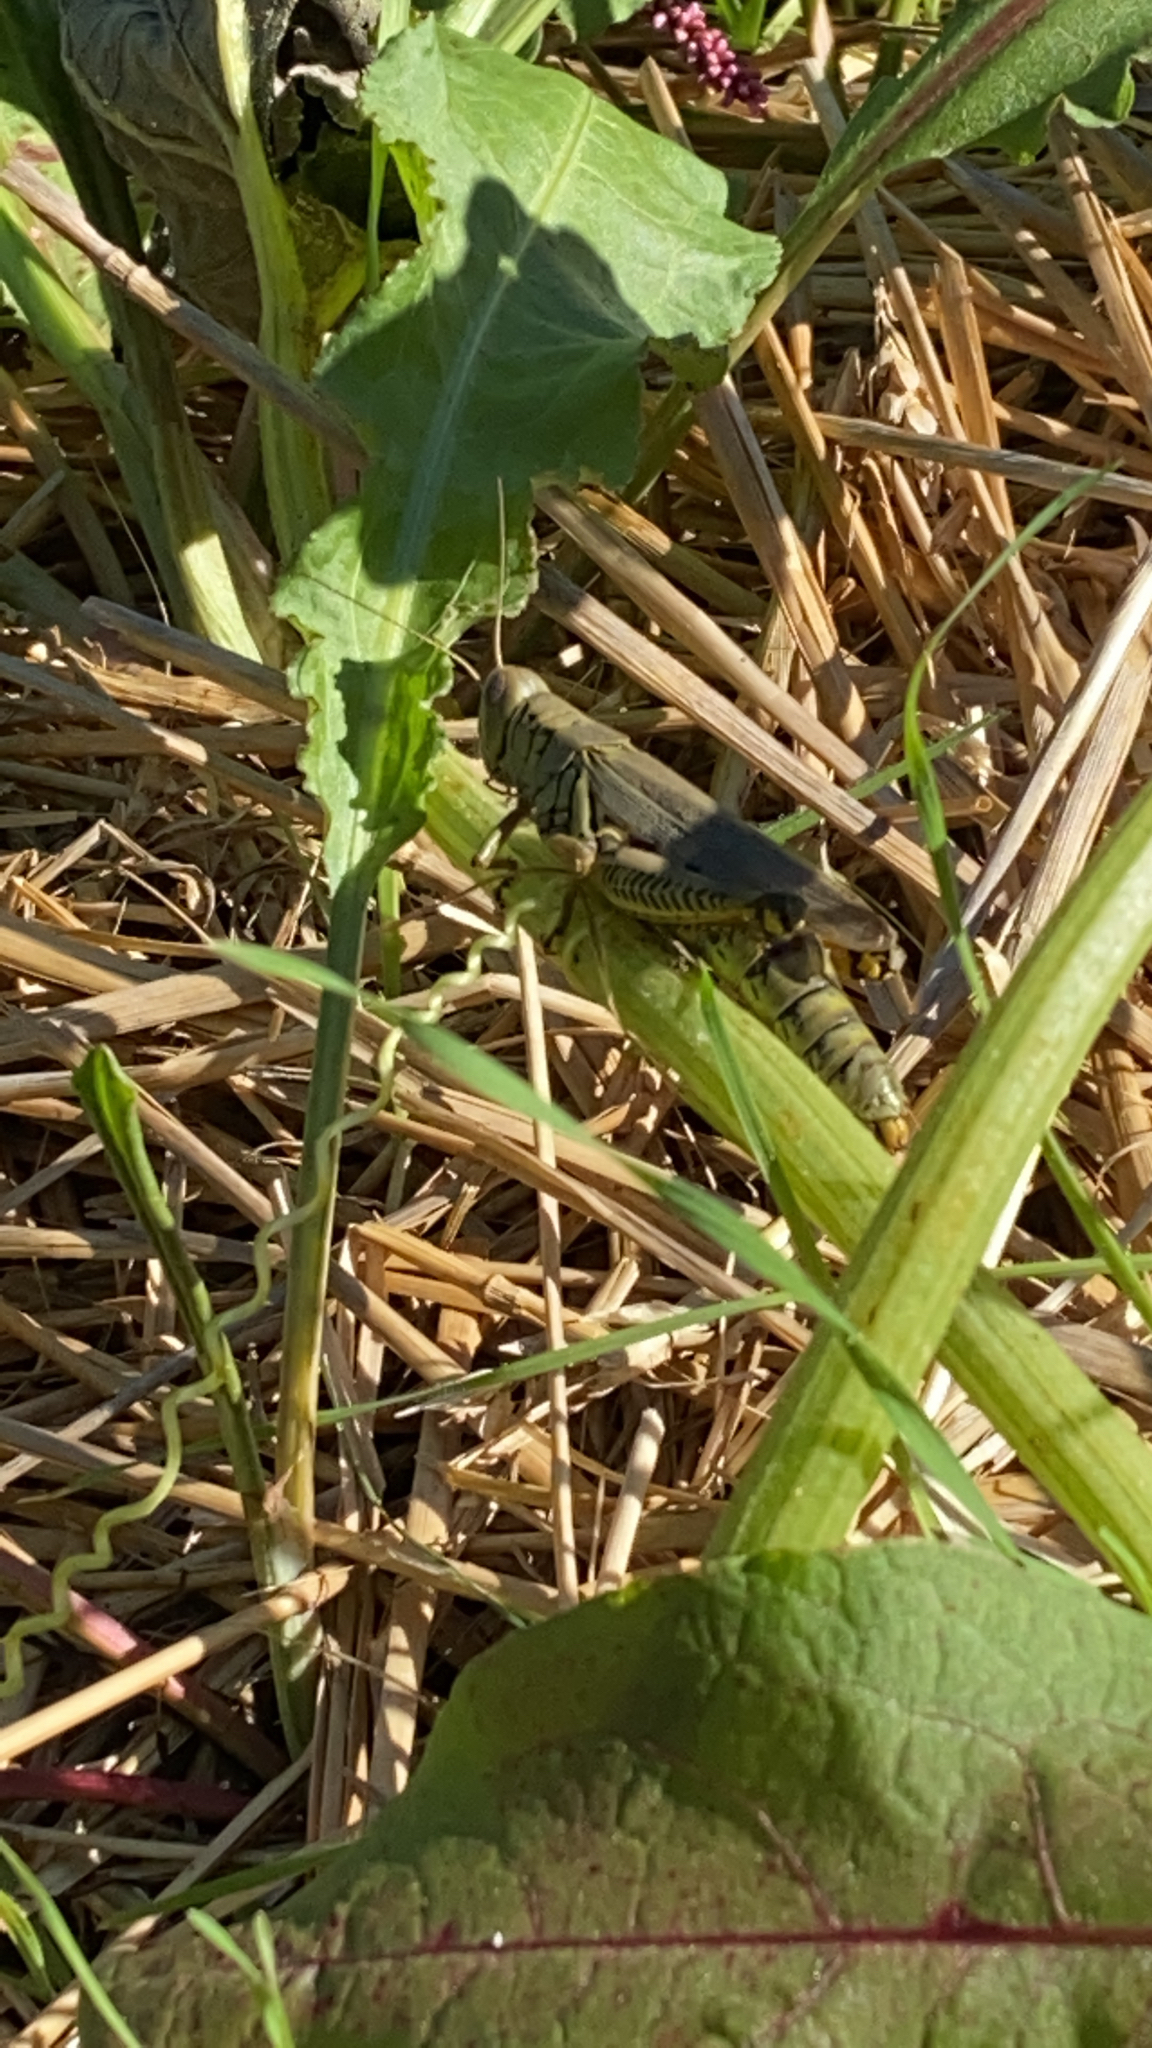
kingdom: Animalia
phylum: Arthropoda
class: Insecta
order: Orthoptera
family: Acrididae
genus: Melanoplus
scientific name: Melanoplus differentialis
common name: Differential grasshopper
